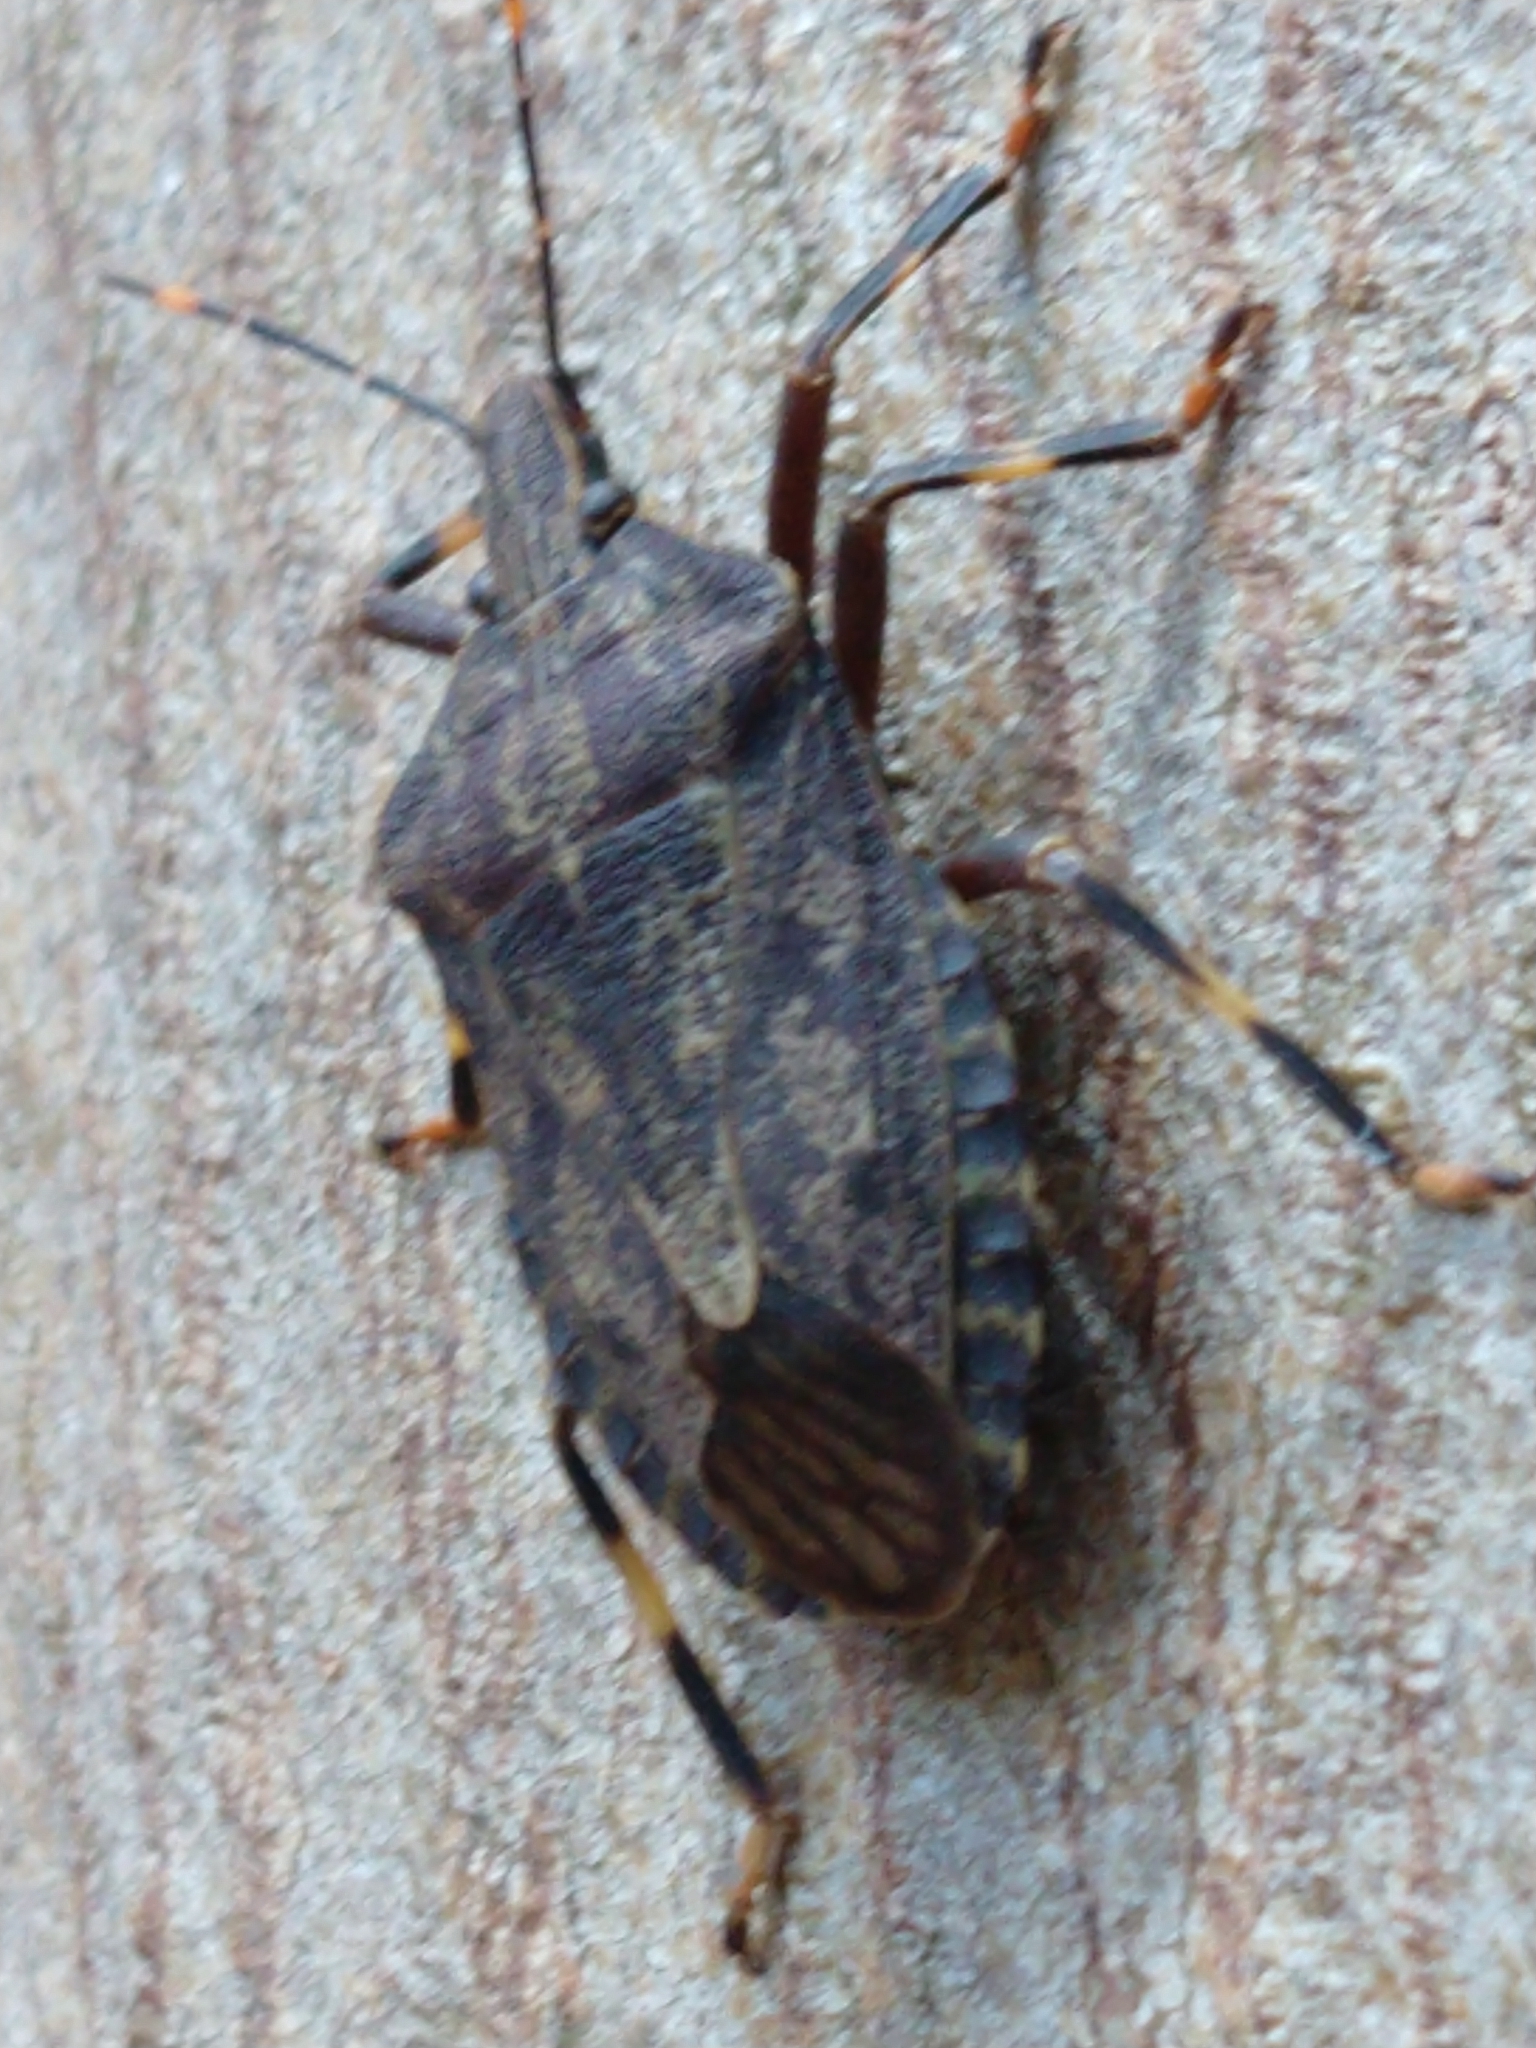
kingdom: Animalia
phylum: Arthropoda
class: Insecta
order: Hemiptera
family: Pentatomidae
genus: Coenomorpha
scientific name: Coenomorpha nervosa
